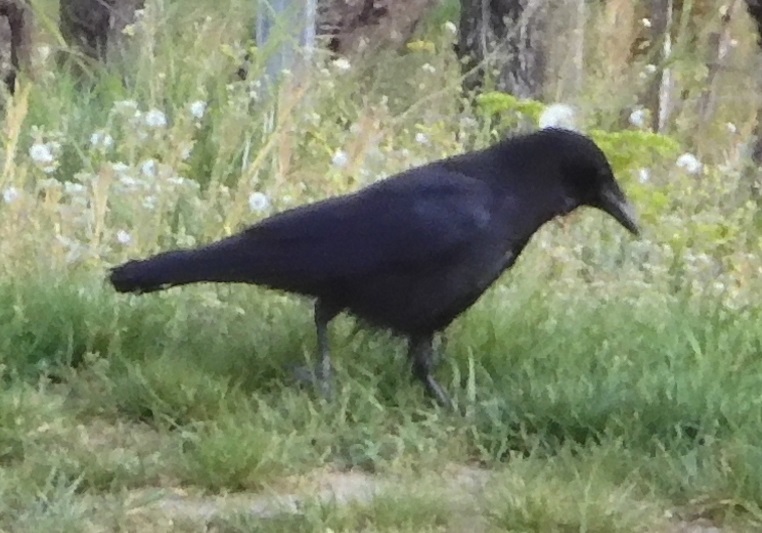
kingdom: Animalia
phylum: Chordata
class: Aves
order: Passeriformes
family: Corvidae
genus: Corvus
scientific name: Corvus corone
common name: Carrion crow
